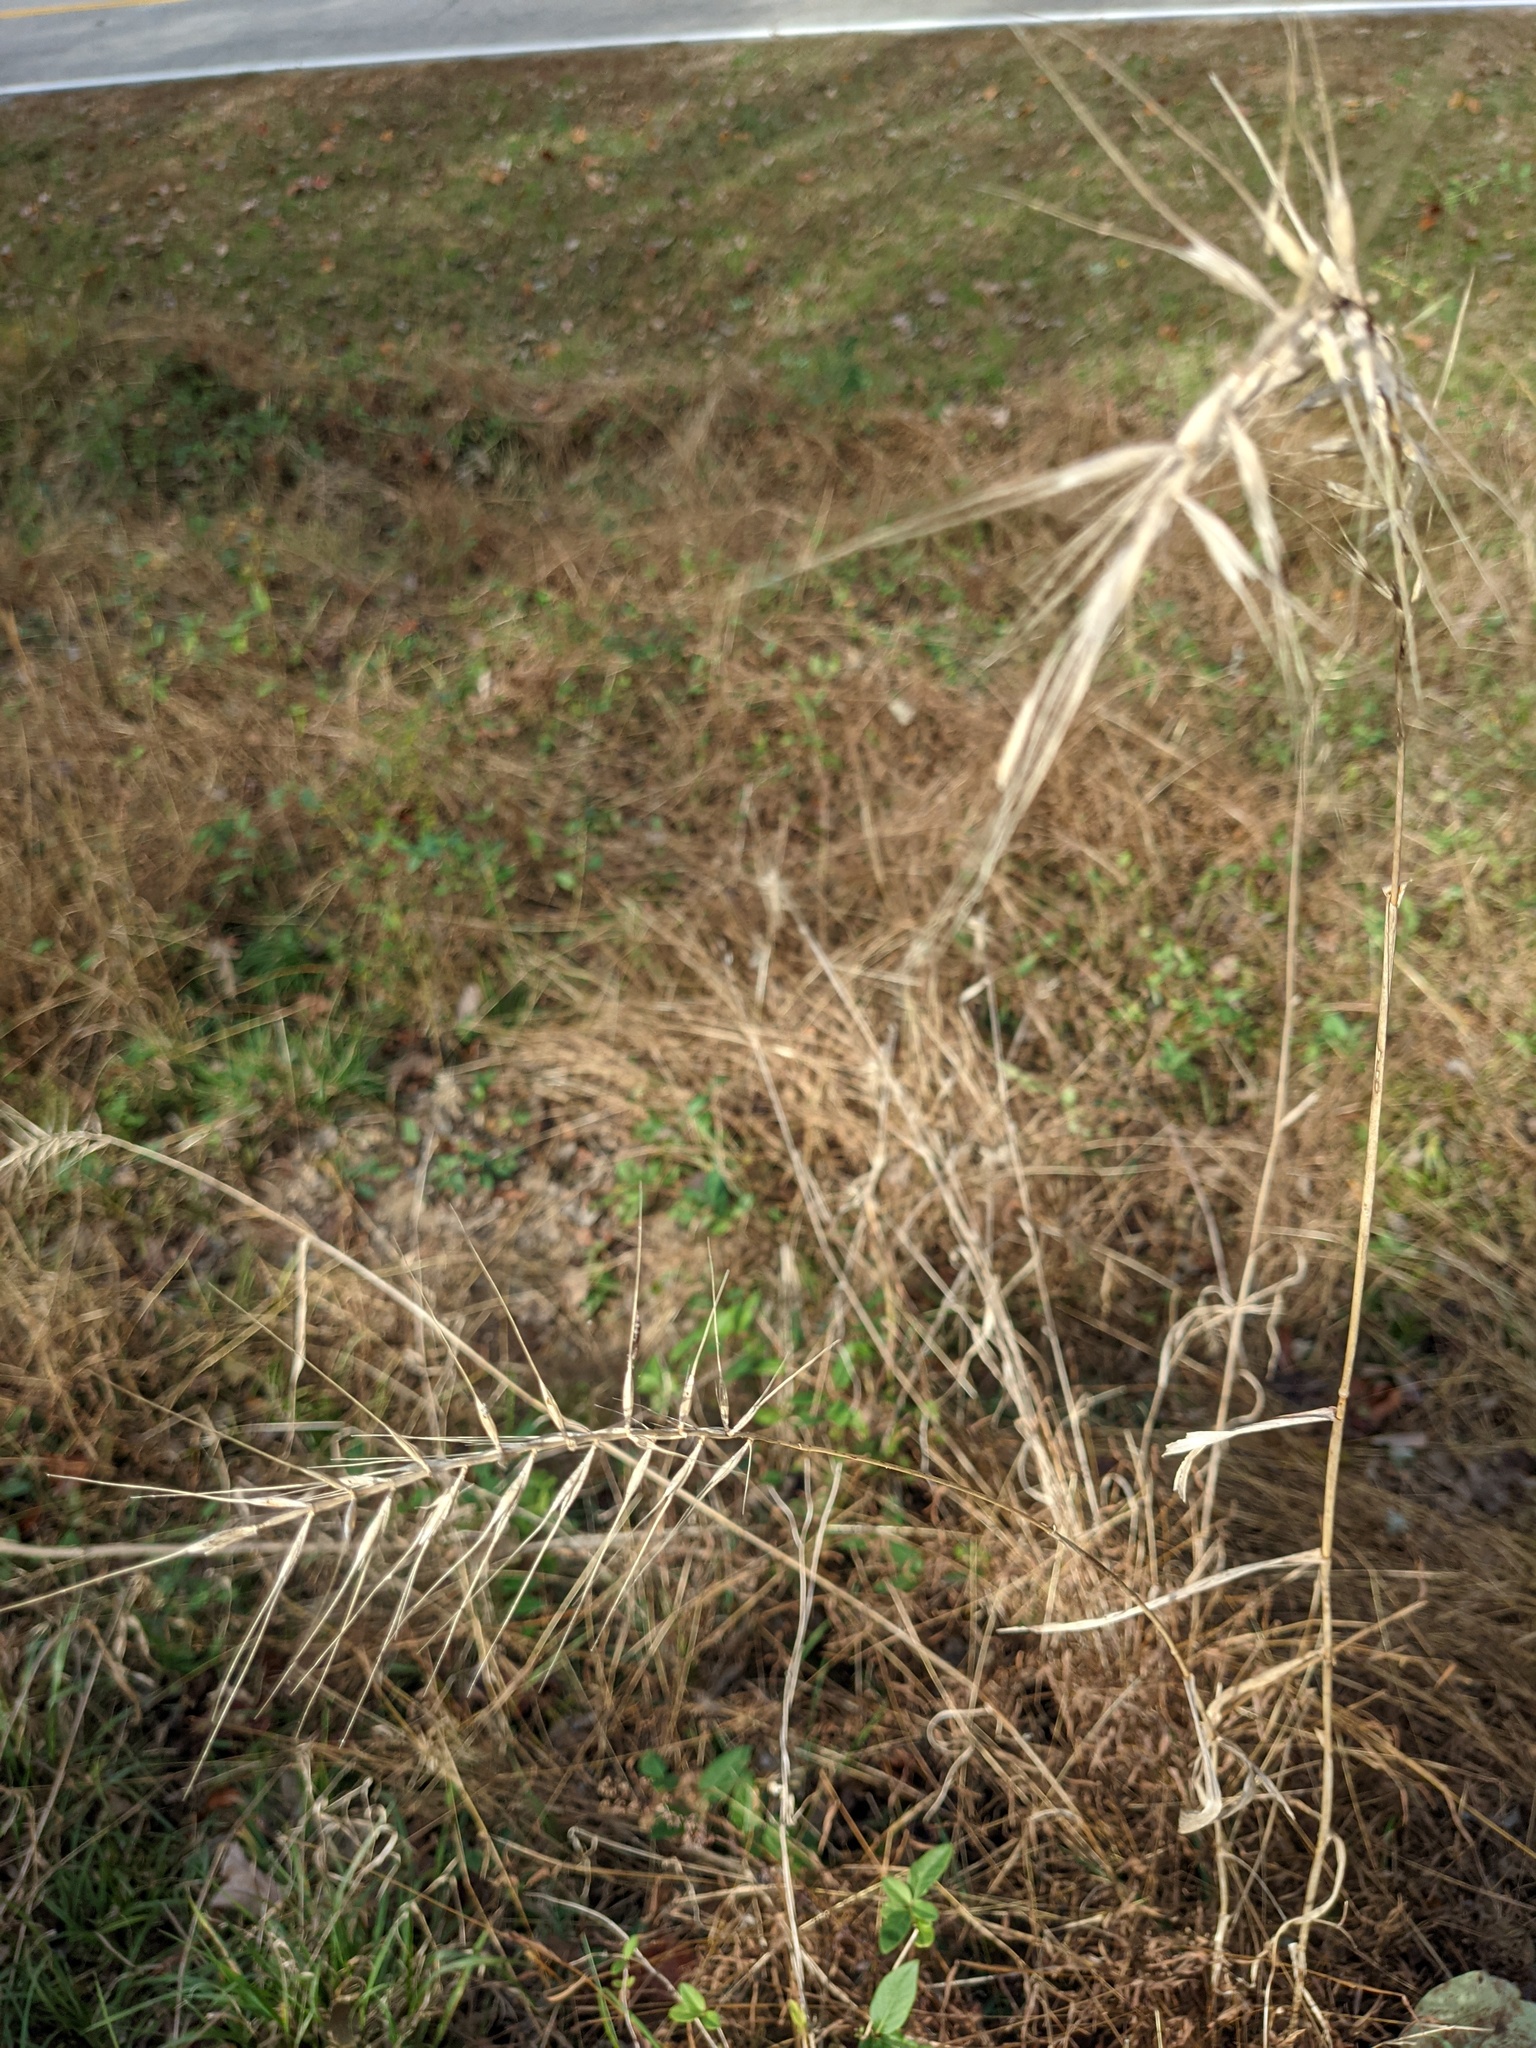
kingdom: Plantae
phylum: Tracheophyta
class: Liliopsida
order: Poales
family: Poaceae
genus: Elymus
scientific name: Elymus hystrix
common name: Bottlebrush grass
